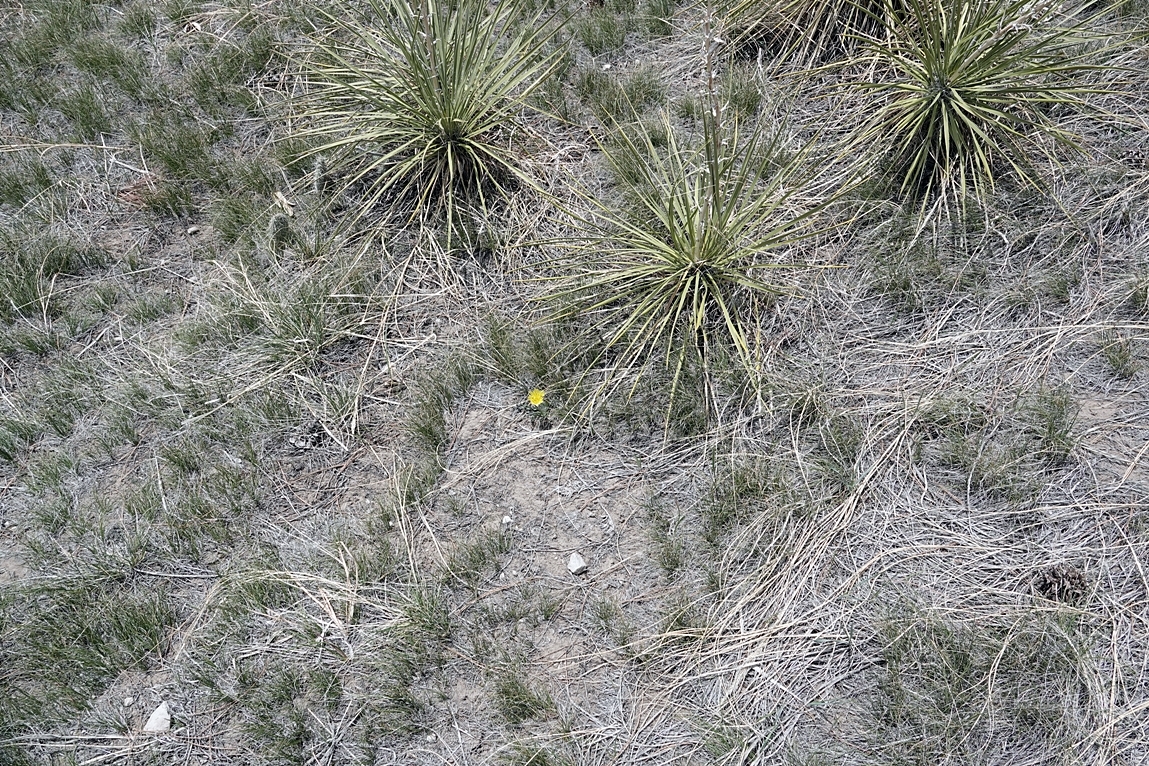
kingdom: Plantae
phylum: Tracheophyta
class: Magnoliopsida
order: Asterales
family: Asteraceae
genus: Microseris
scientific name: Microseris cuspidata
